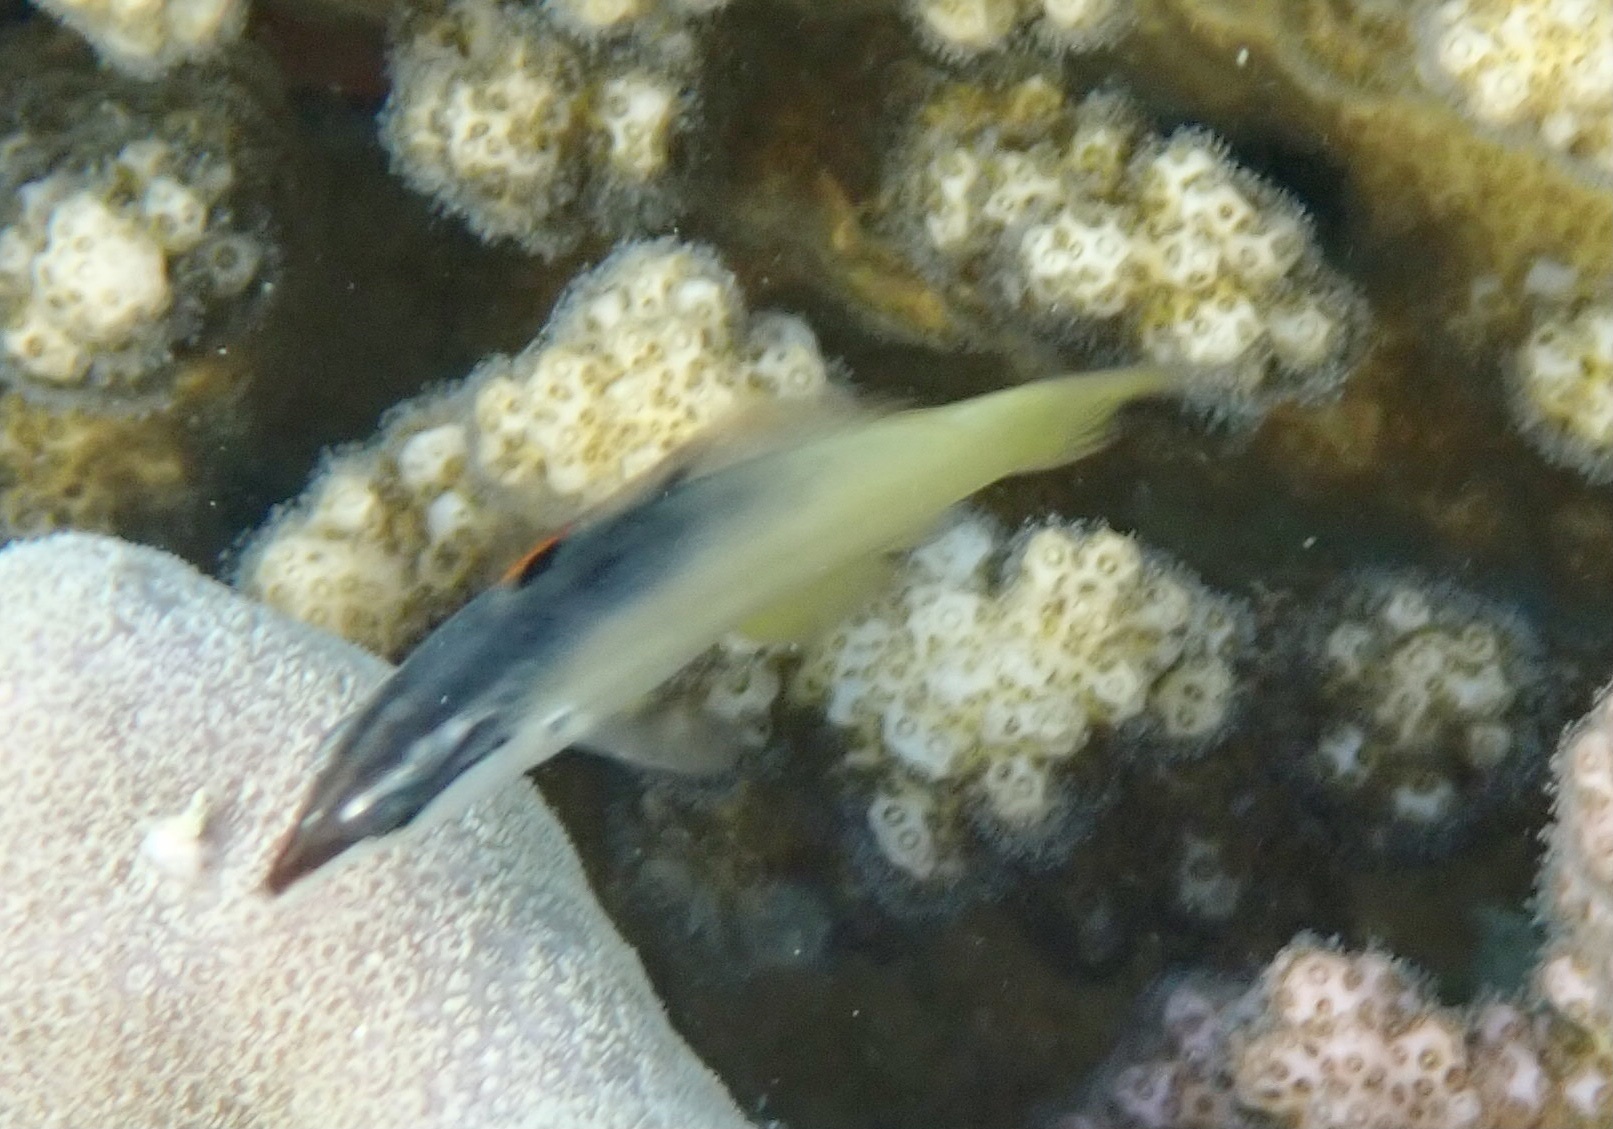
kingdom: Animalia
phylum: Chordata
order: Perciformes
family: Labridae
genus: Gomphosus
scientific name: Gomphosus klunzingeri
